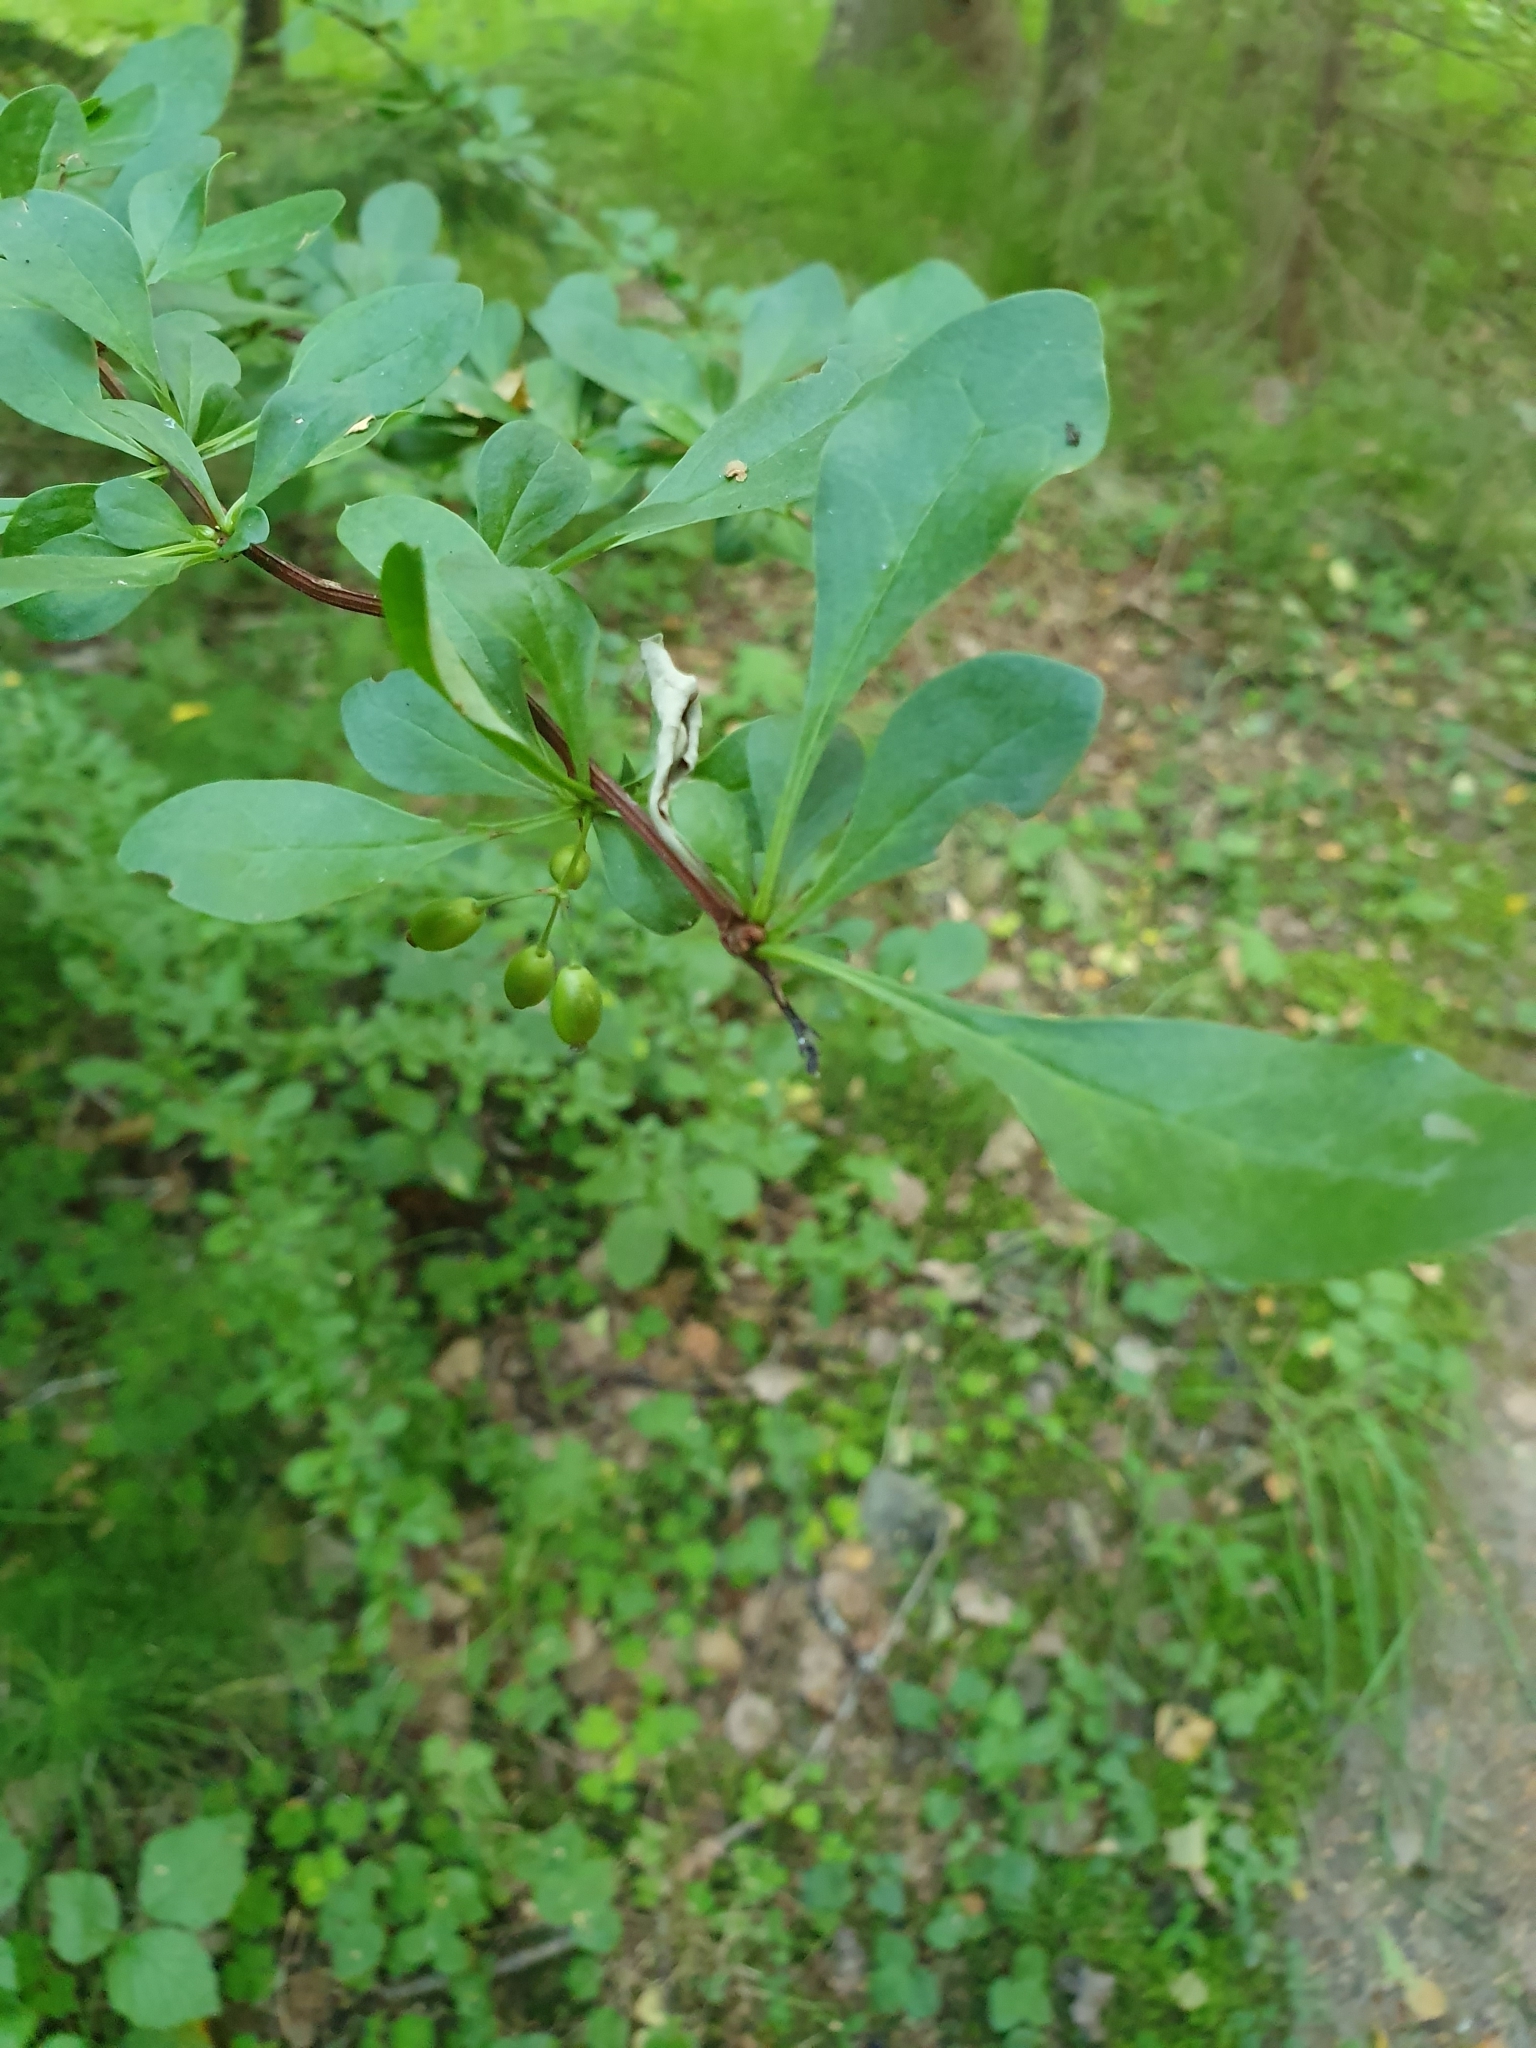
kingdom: Plantae
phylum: Tracheophyta
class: Magnoliopsida
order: Ranunculales
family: Berberidaceae
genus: Berberis
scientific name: Berberis thunbergii
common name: Japanese barberry
